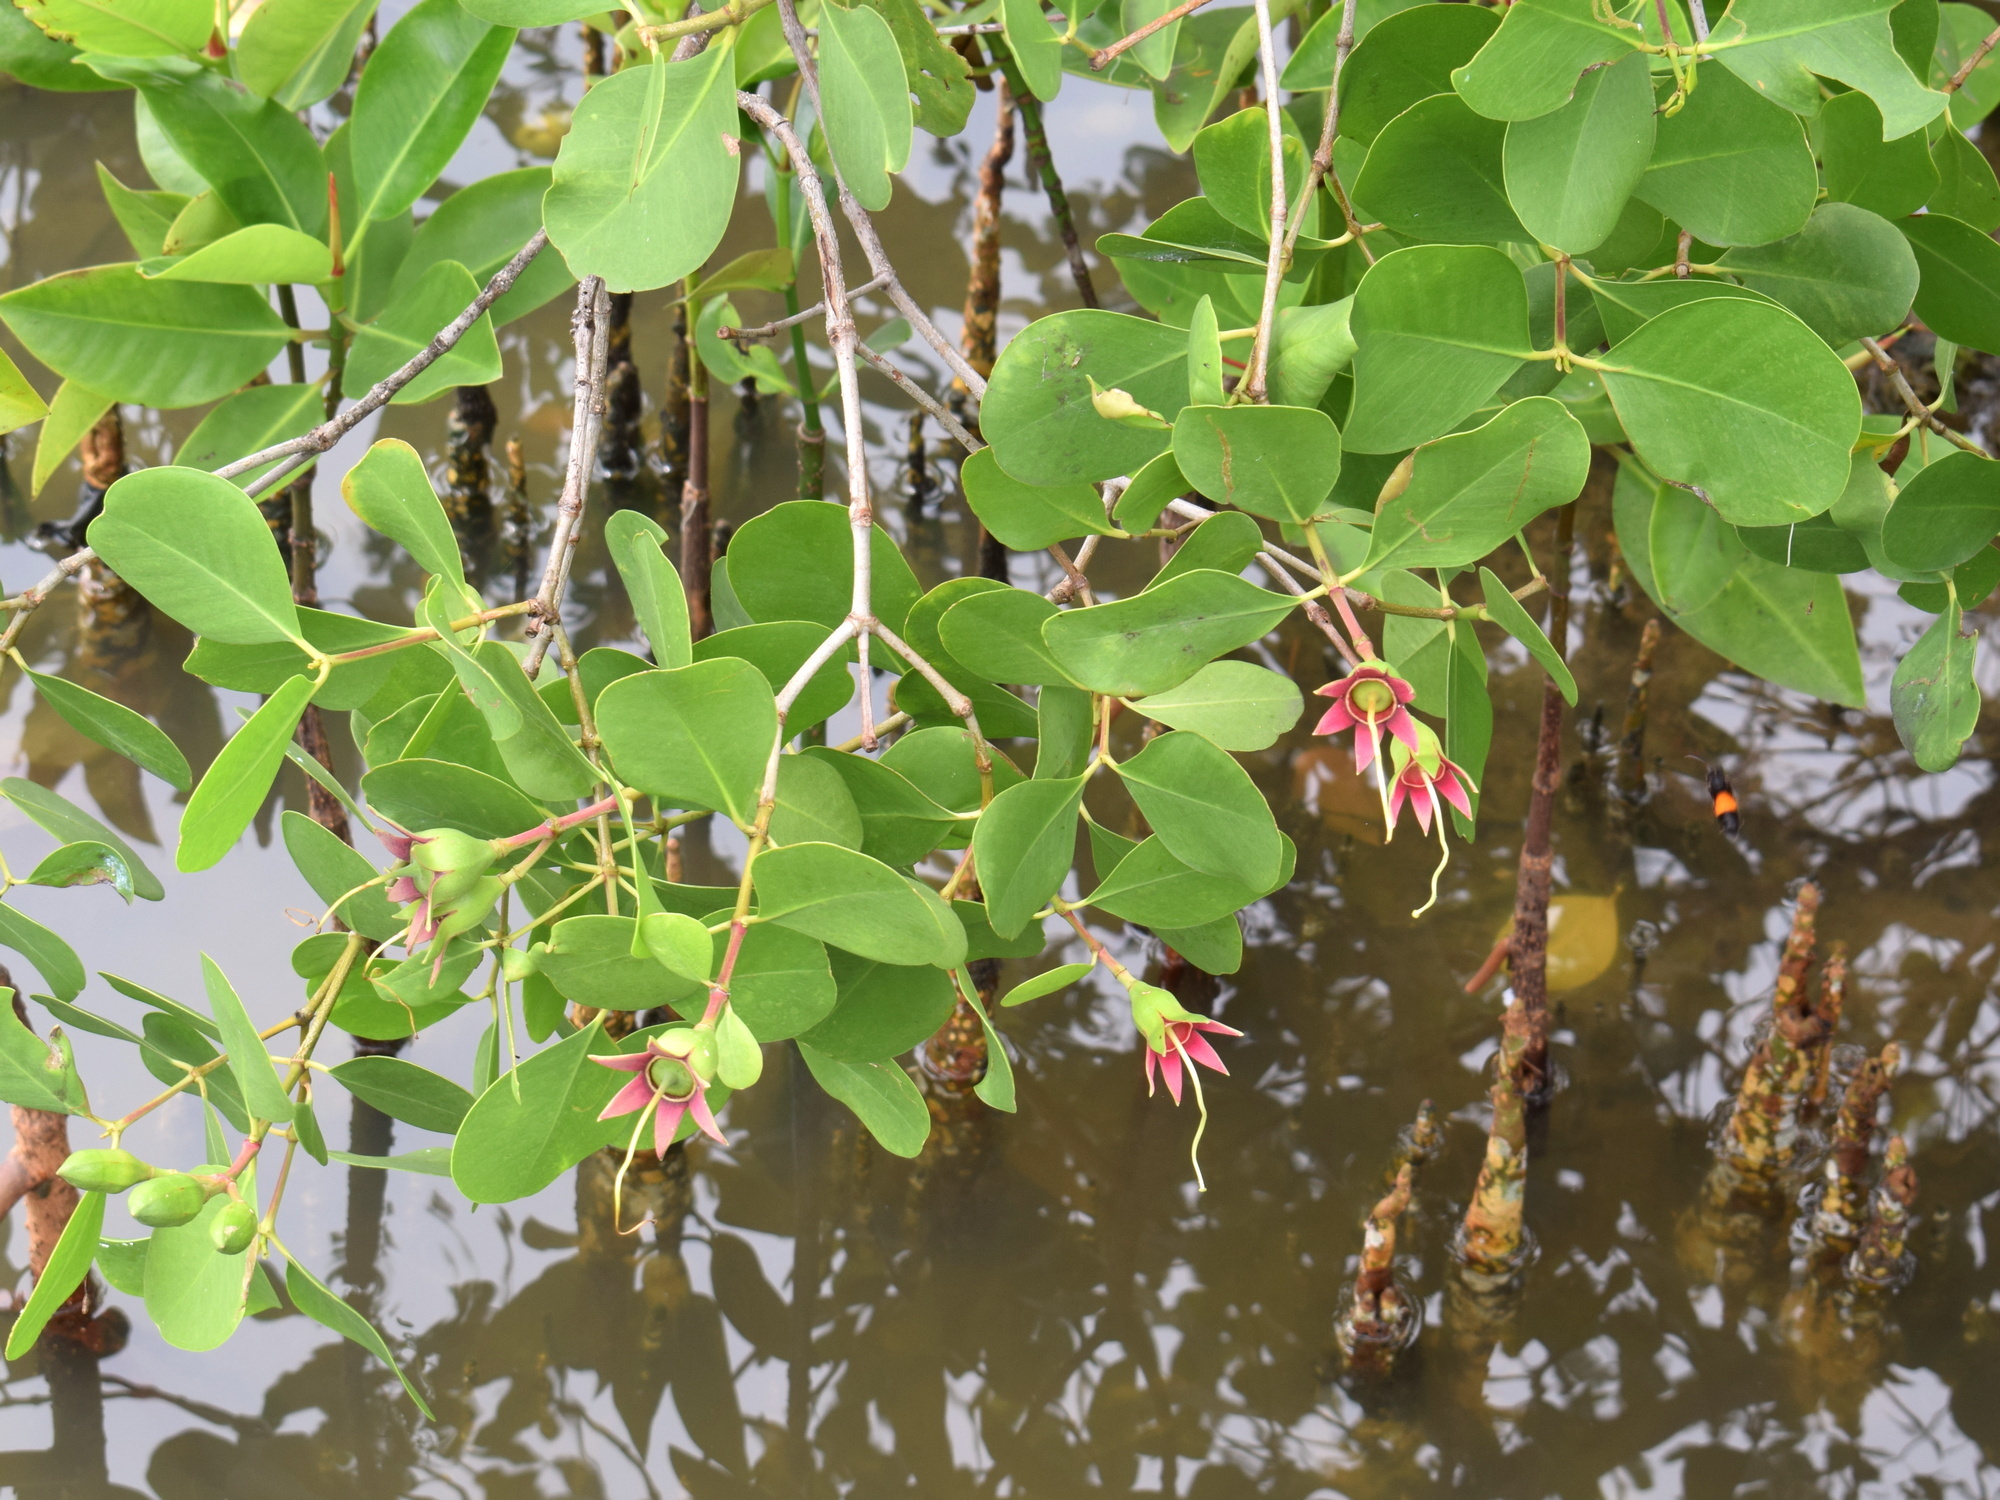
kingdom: Plantae
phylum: Tracheophyta
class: Magnoliopsida
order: Myrtales
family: Lythraceae
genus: Sonneratia
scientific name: Sonneratia alba
